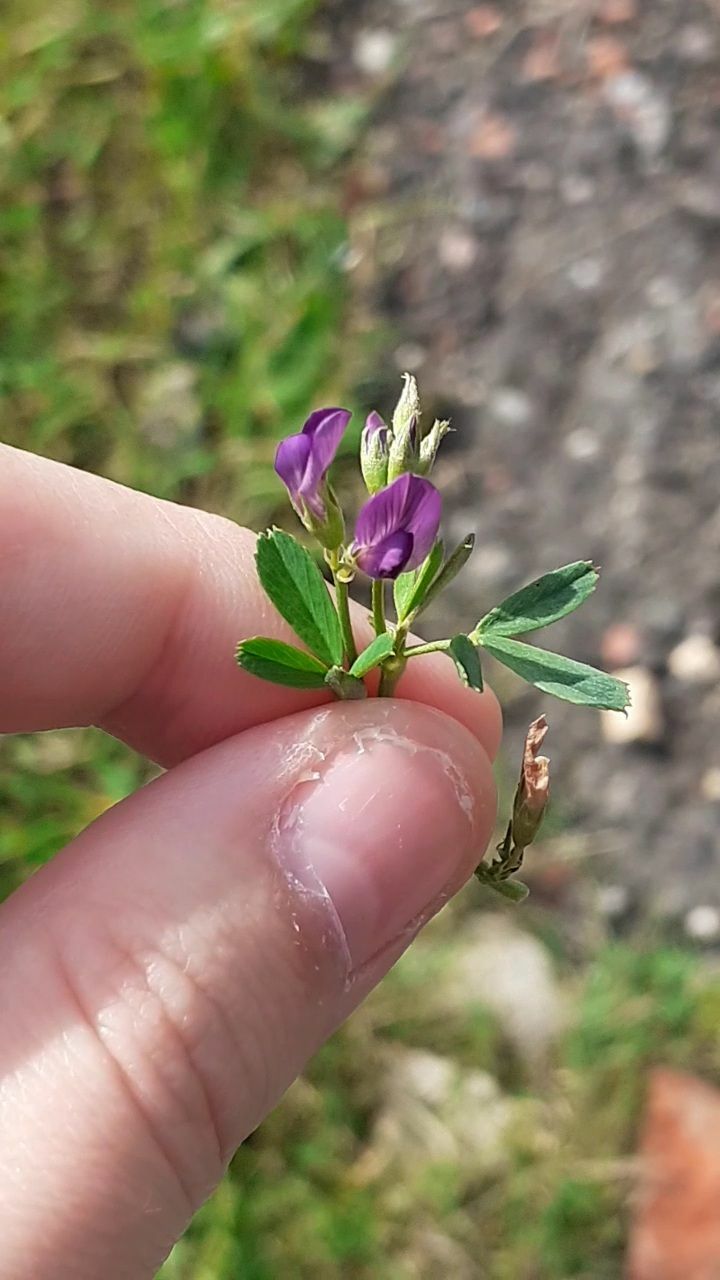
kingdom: Plantae
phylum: Tracheophyta
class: Magnoliopsida
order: Fabales
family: Fabaceae
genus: Medicago
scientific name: Medicago sativa
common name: Alfalfa
